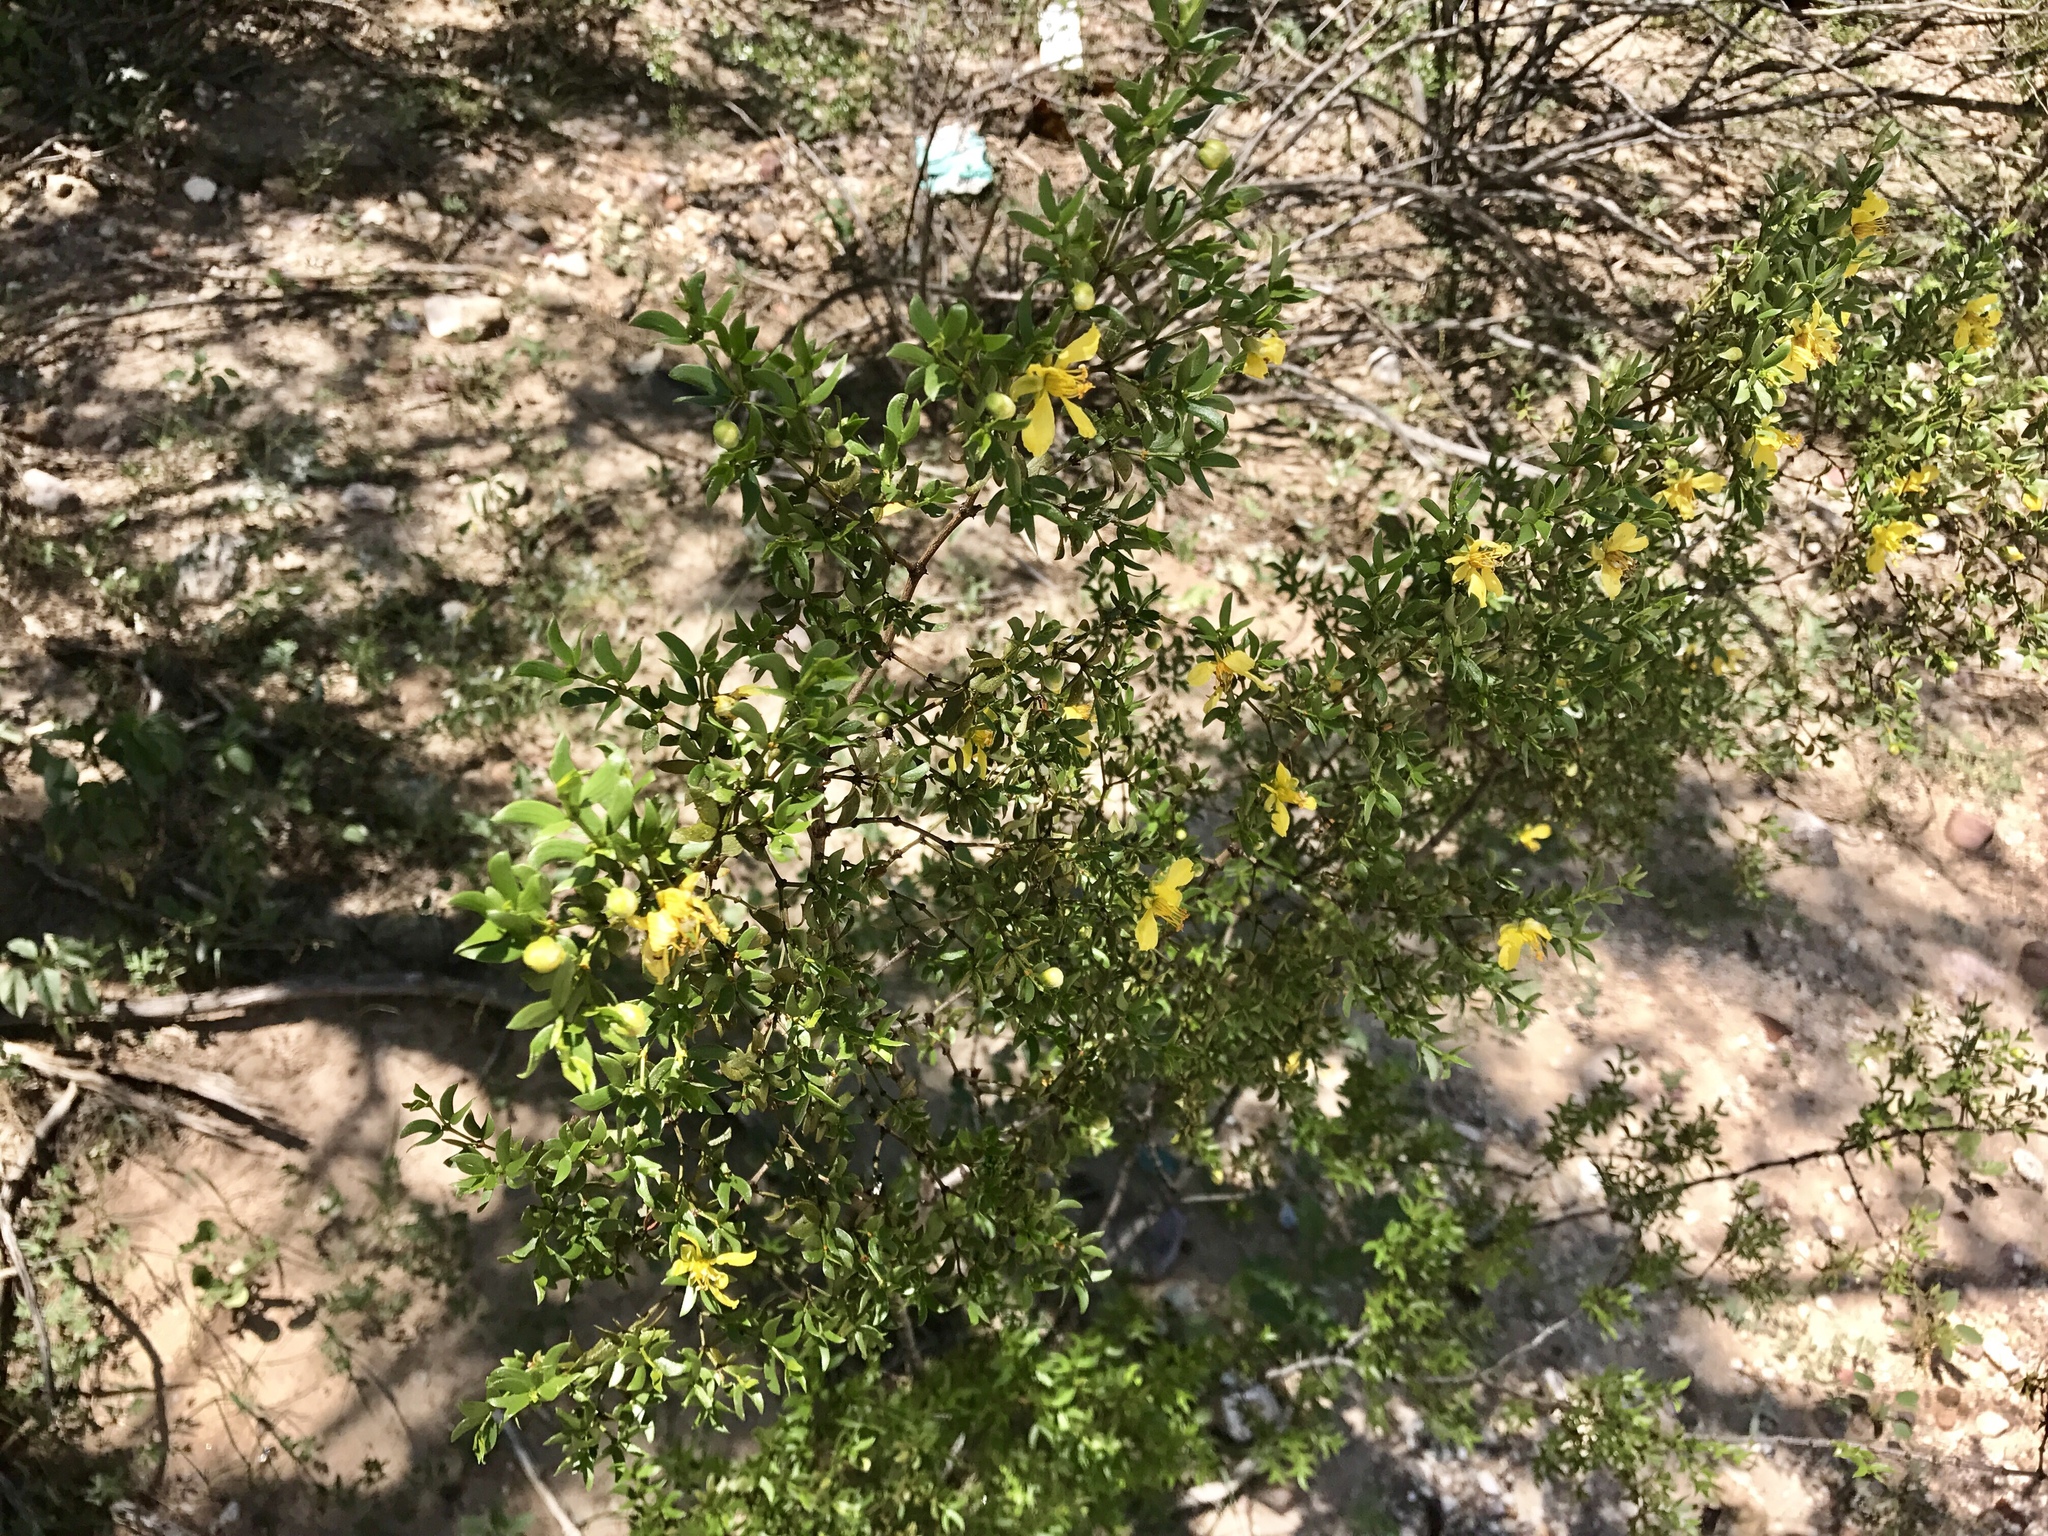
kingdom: Plantae
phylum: Tracheophyta
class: Magnoliopsida
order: Zygophyllales
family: Zygophyllaceae
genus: Larrea
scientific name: Larrea tridentata
